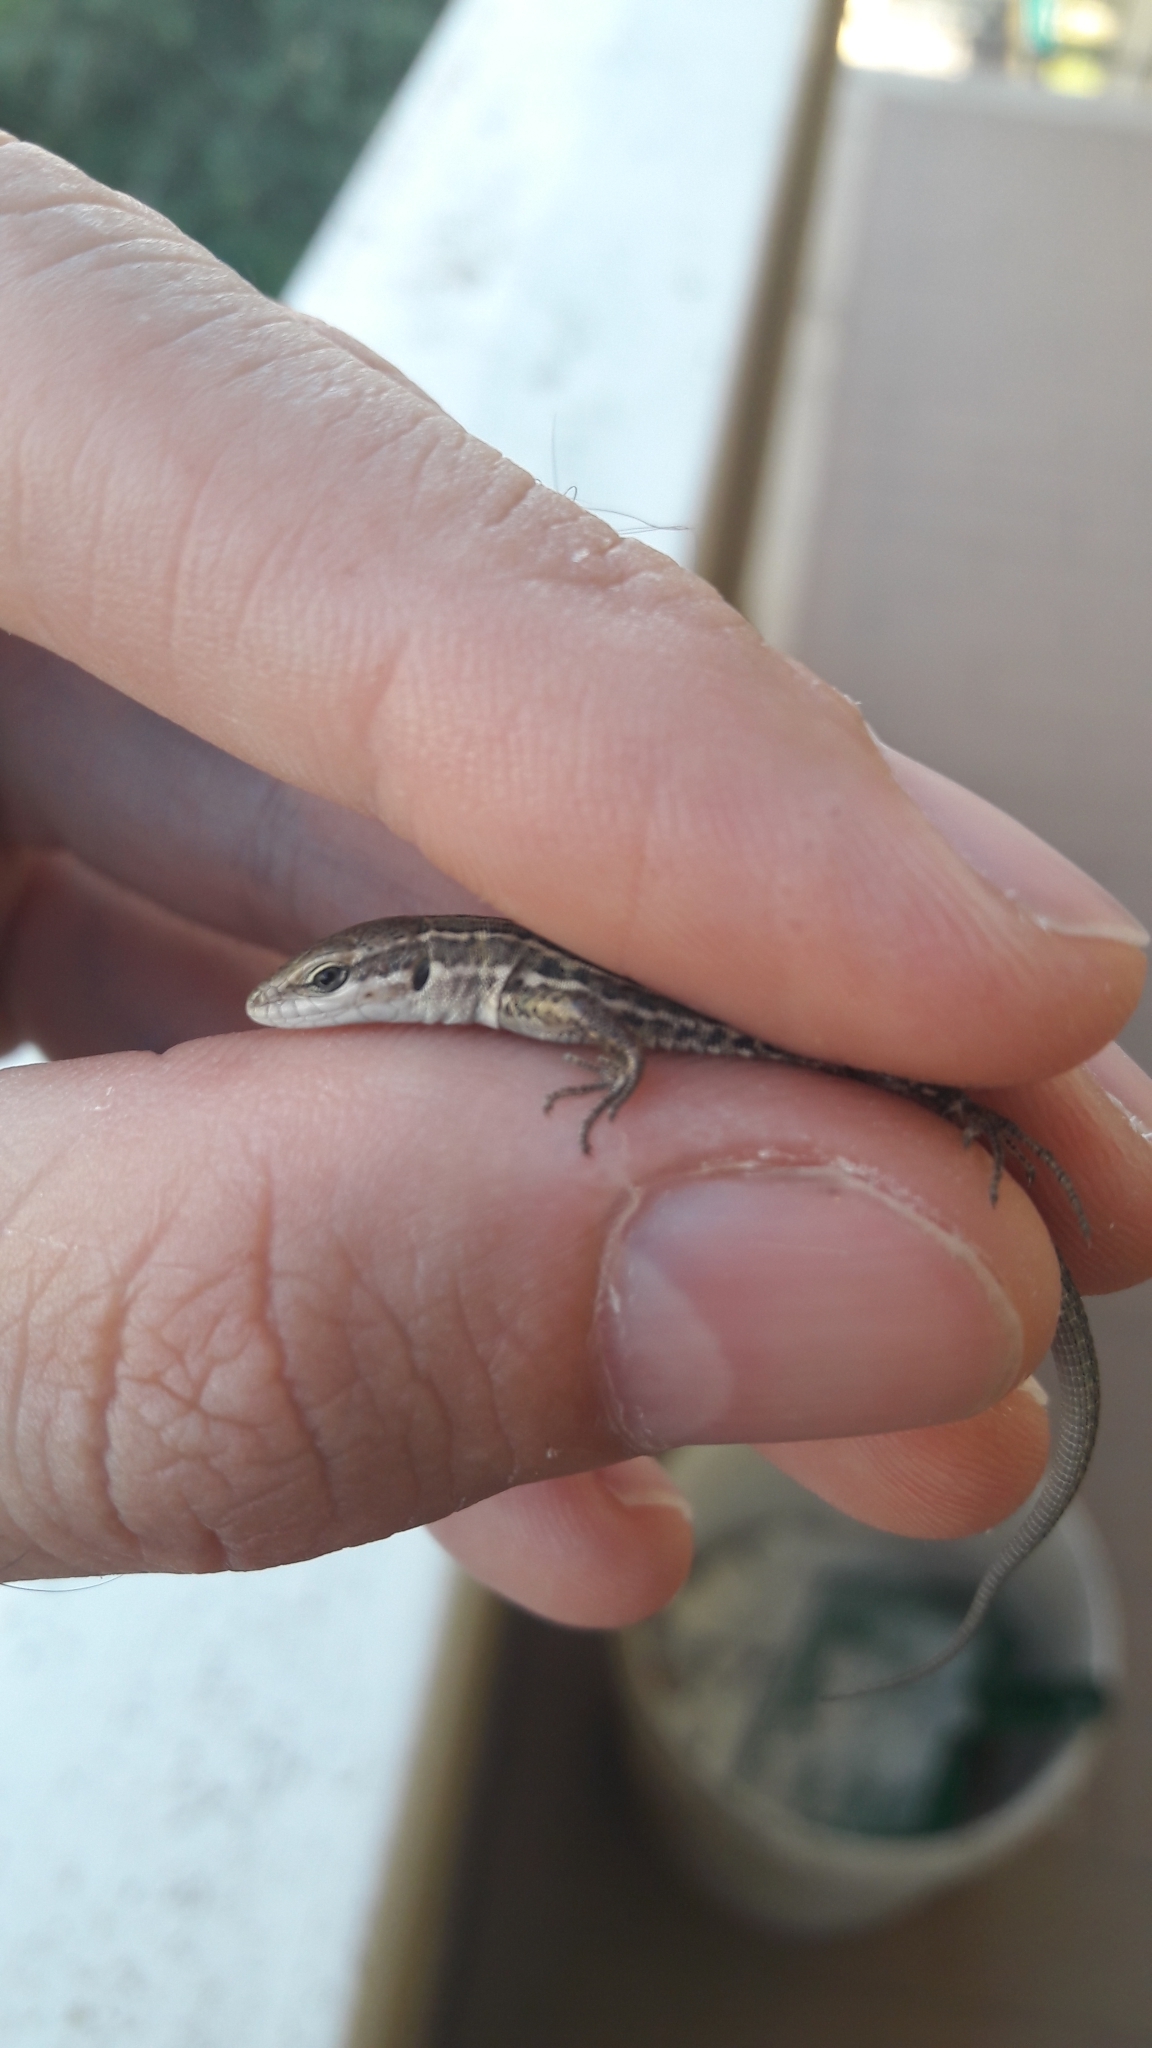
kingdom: Animalia
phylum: Chordata
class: Squamata
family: Lacertidae
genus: Podarcis
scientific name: Podarcis siculus
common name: Italian wall lizard
